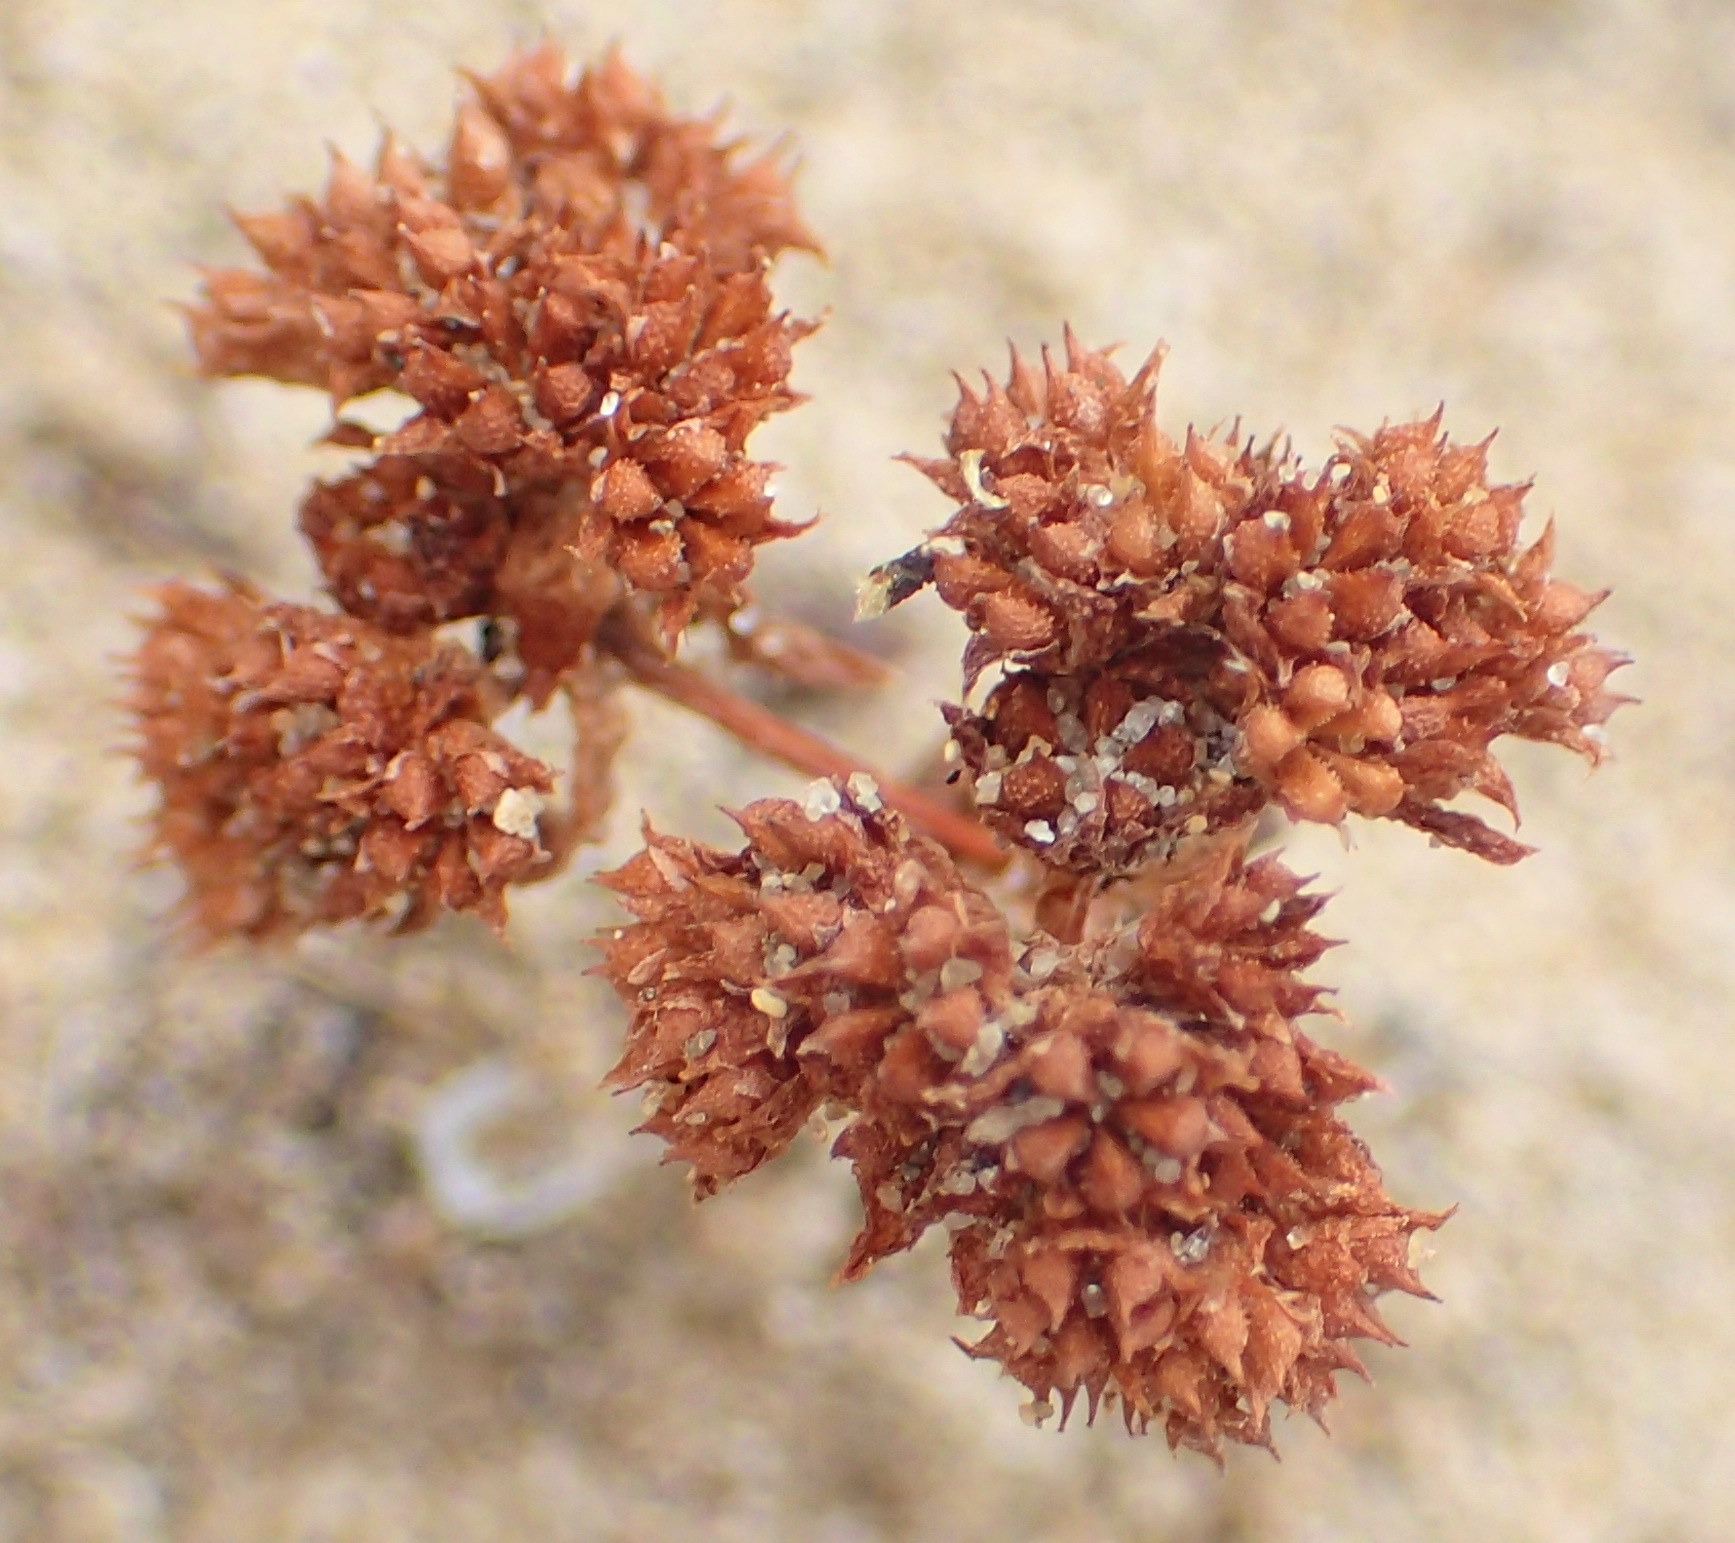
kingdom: Plantae
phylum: Tracheophyta
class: Magnoliopsida
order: Saxifragales
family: Crassulaceae
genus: Crassula
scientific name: Crassula umbellata
